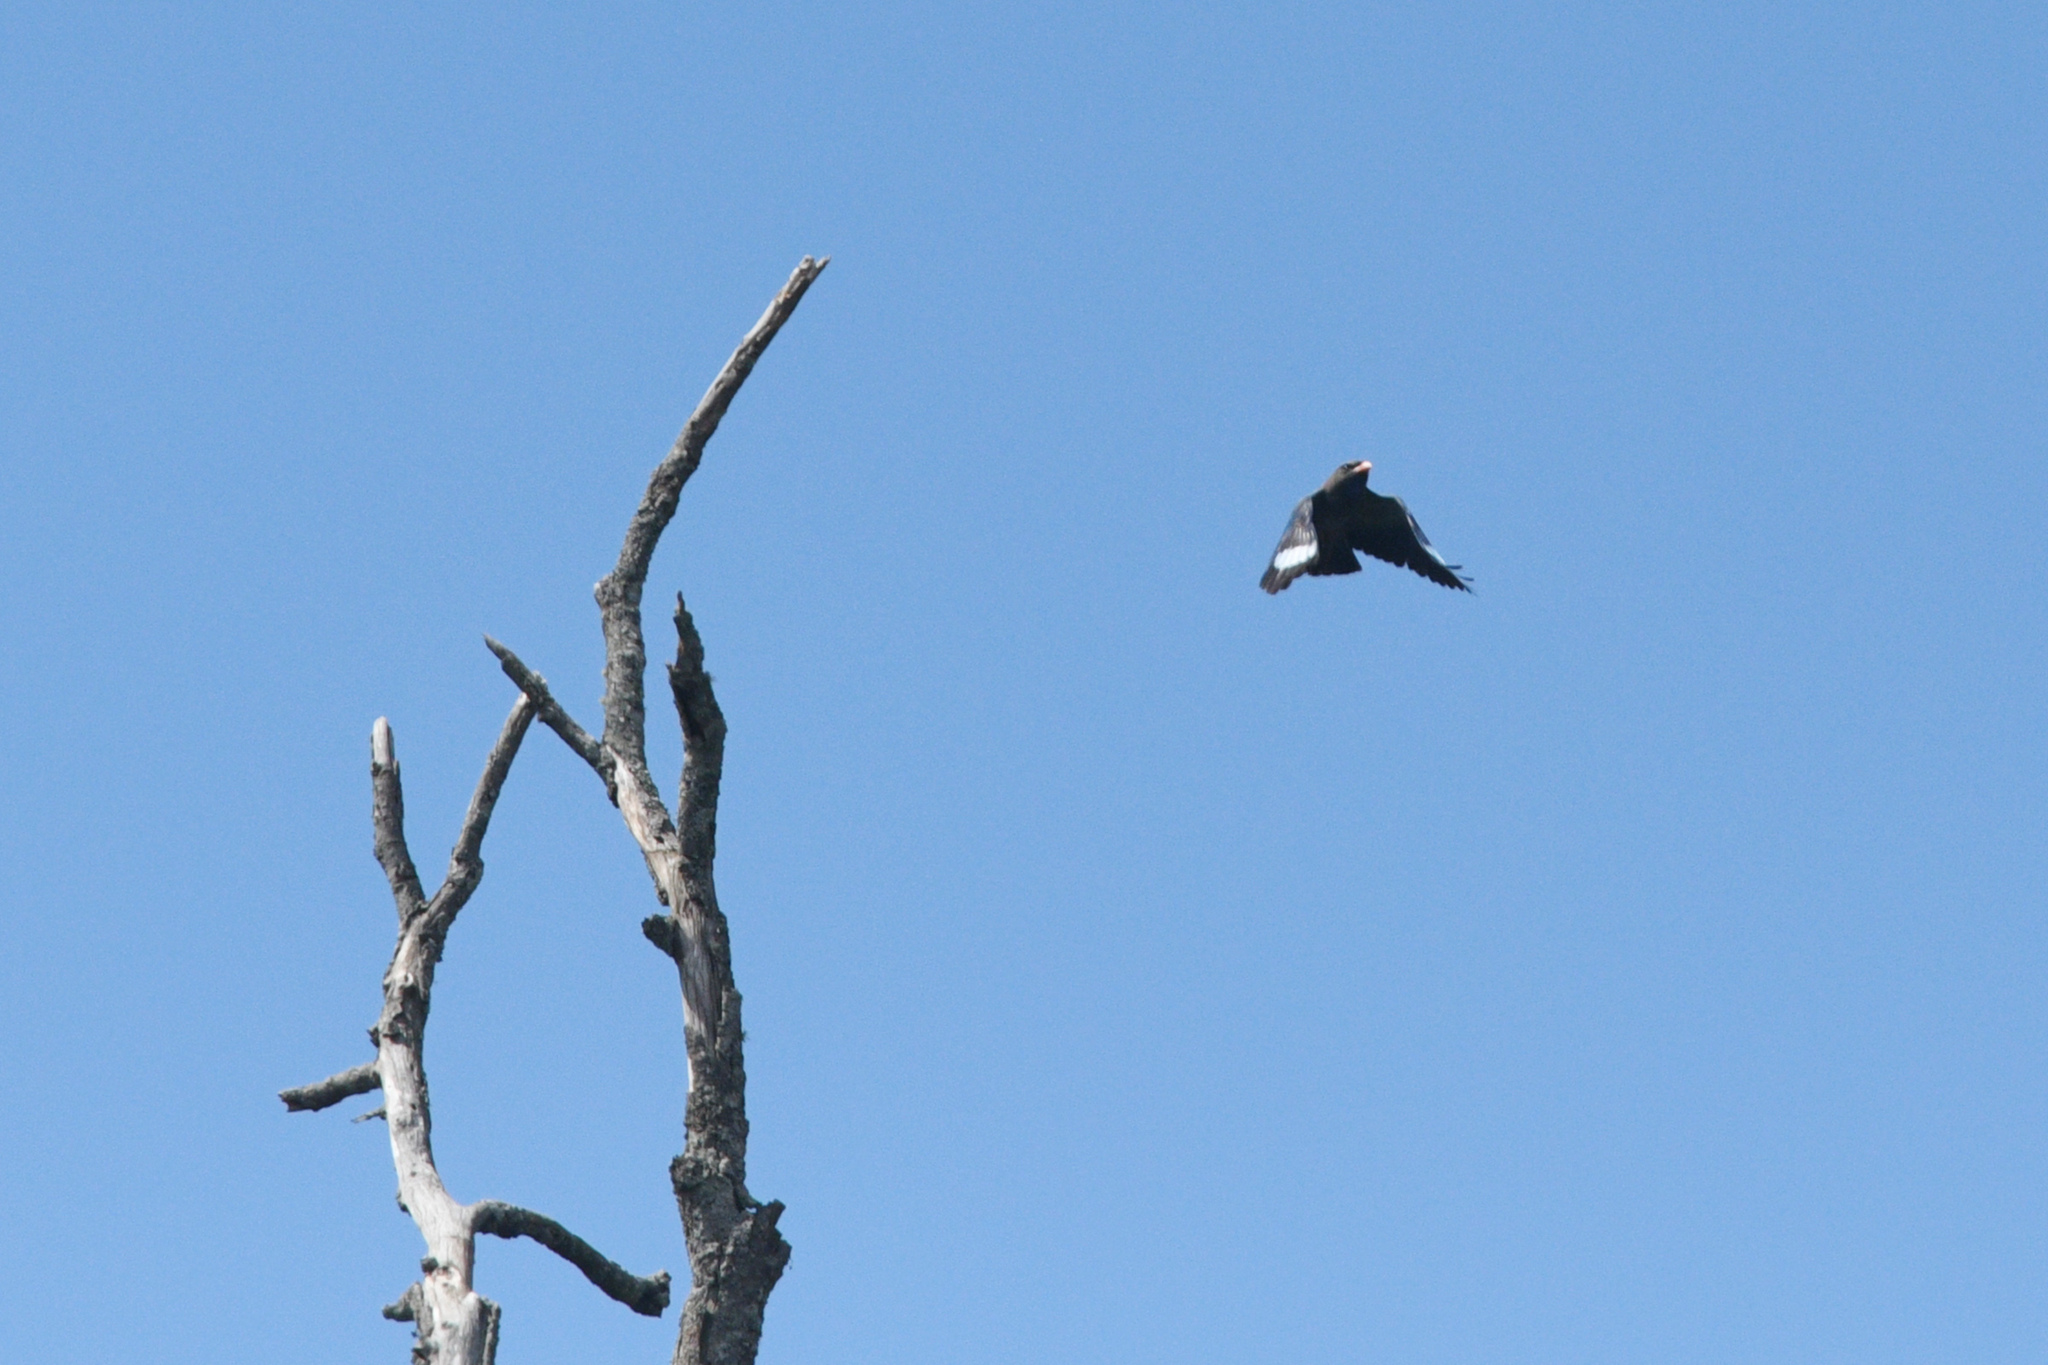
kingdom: Animalia
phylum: Chordata
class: Aves
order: Coraciiformes
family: Coraciidae
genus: Eurystomus
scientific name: Eurystomus orientalis
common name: Oriental dollarbird
